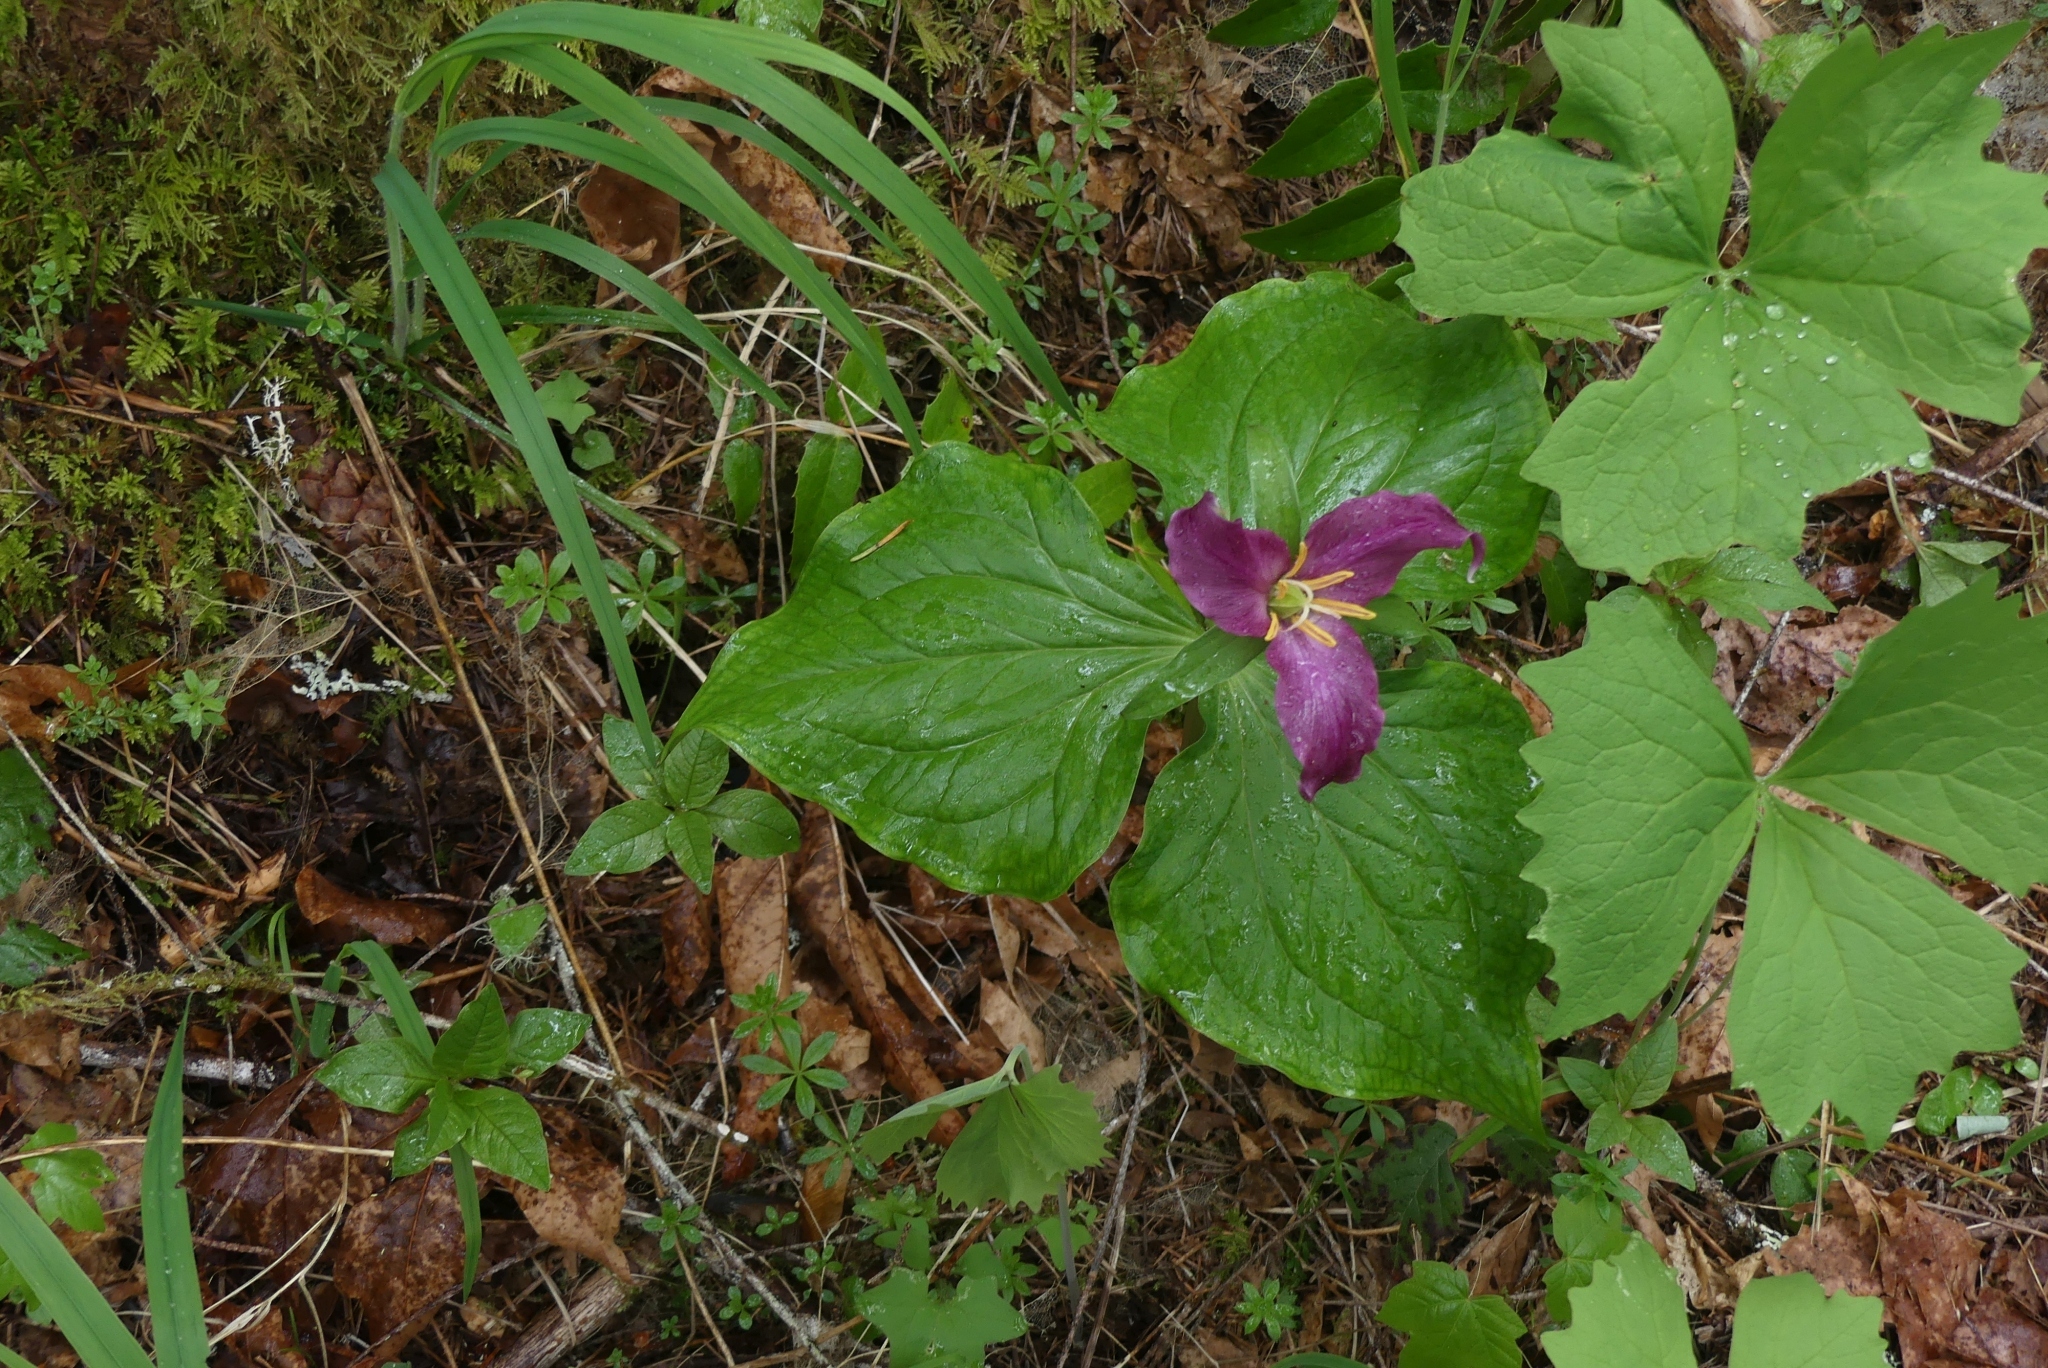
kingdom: Plantae
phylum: Tracheophyta
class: Liliopsida
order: Liliales
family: Melanthiaceae
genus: Trillium
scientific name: Trillium ovatum
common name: Pacific trillium
